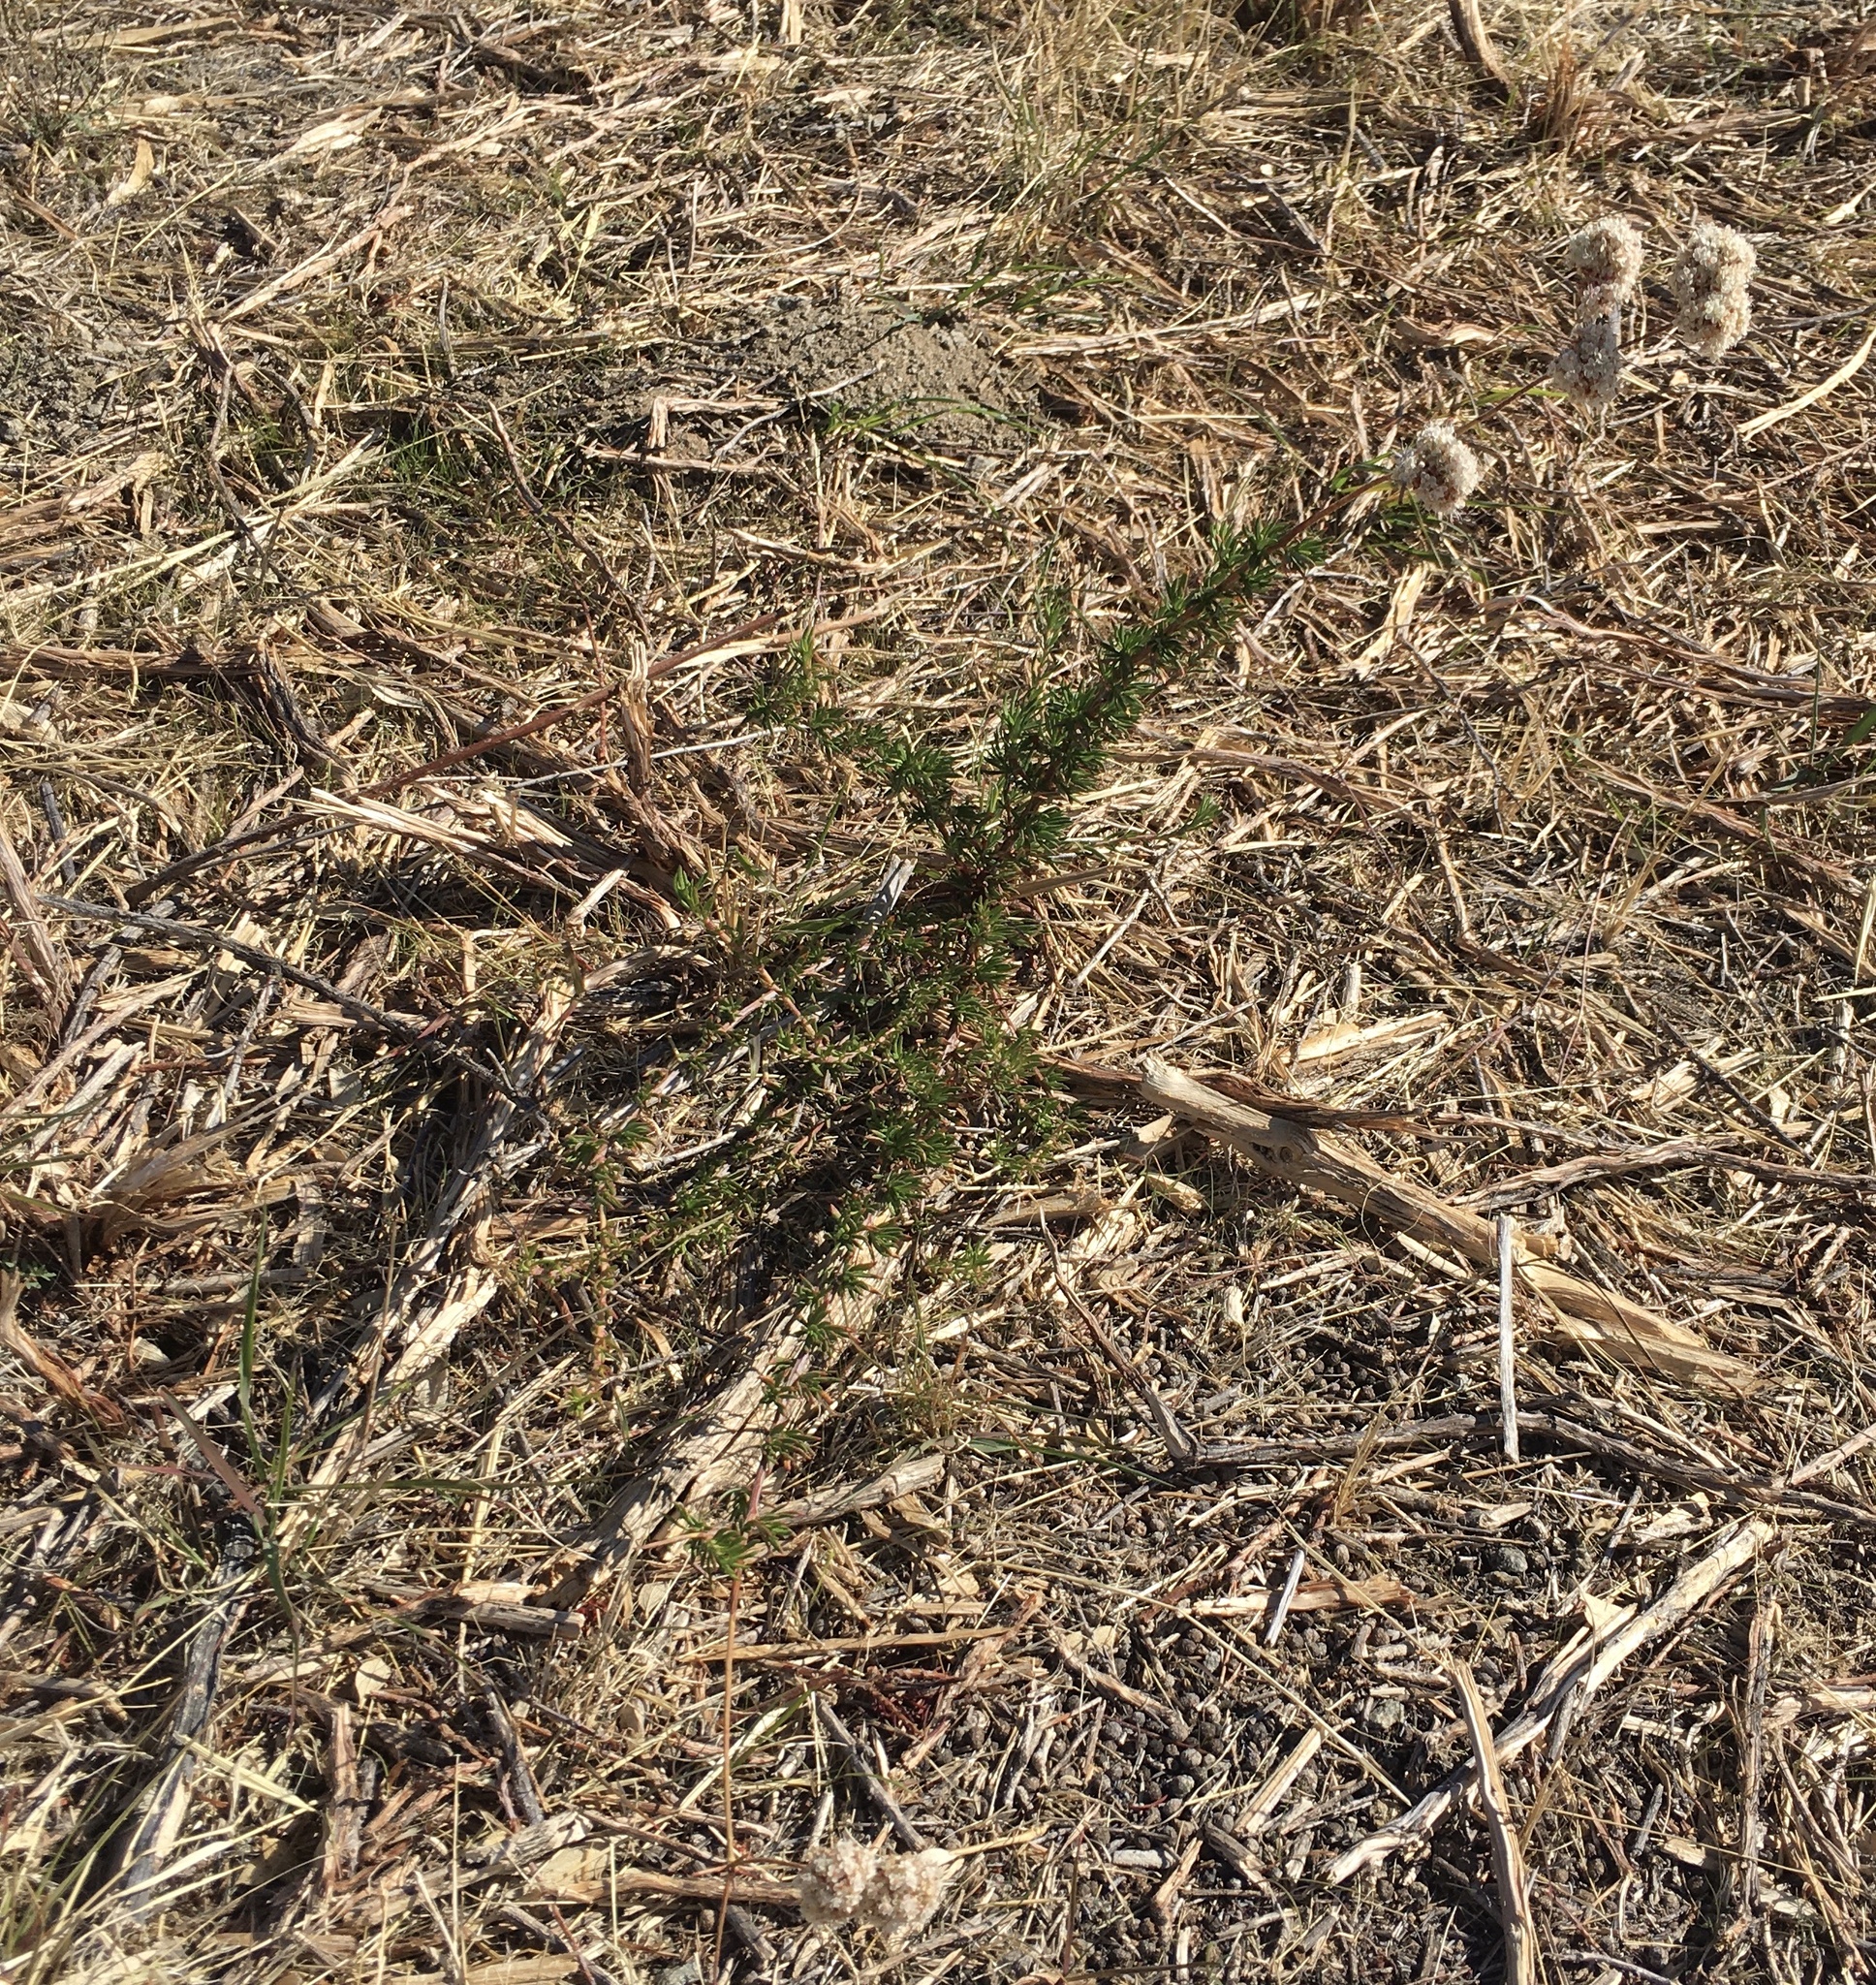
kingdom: Plantae
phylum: Tracheophyta
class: Magnoliopsida
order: Caryophyllales
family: Polygonaceae
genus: Eriogonum
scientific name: Eriogonum fasciculatum
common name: California wild buckwheat
